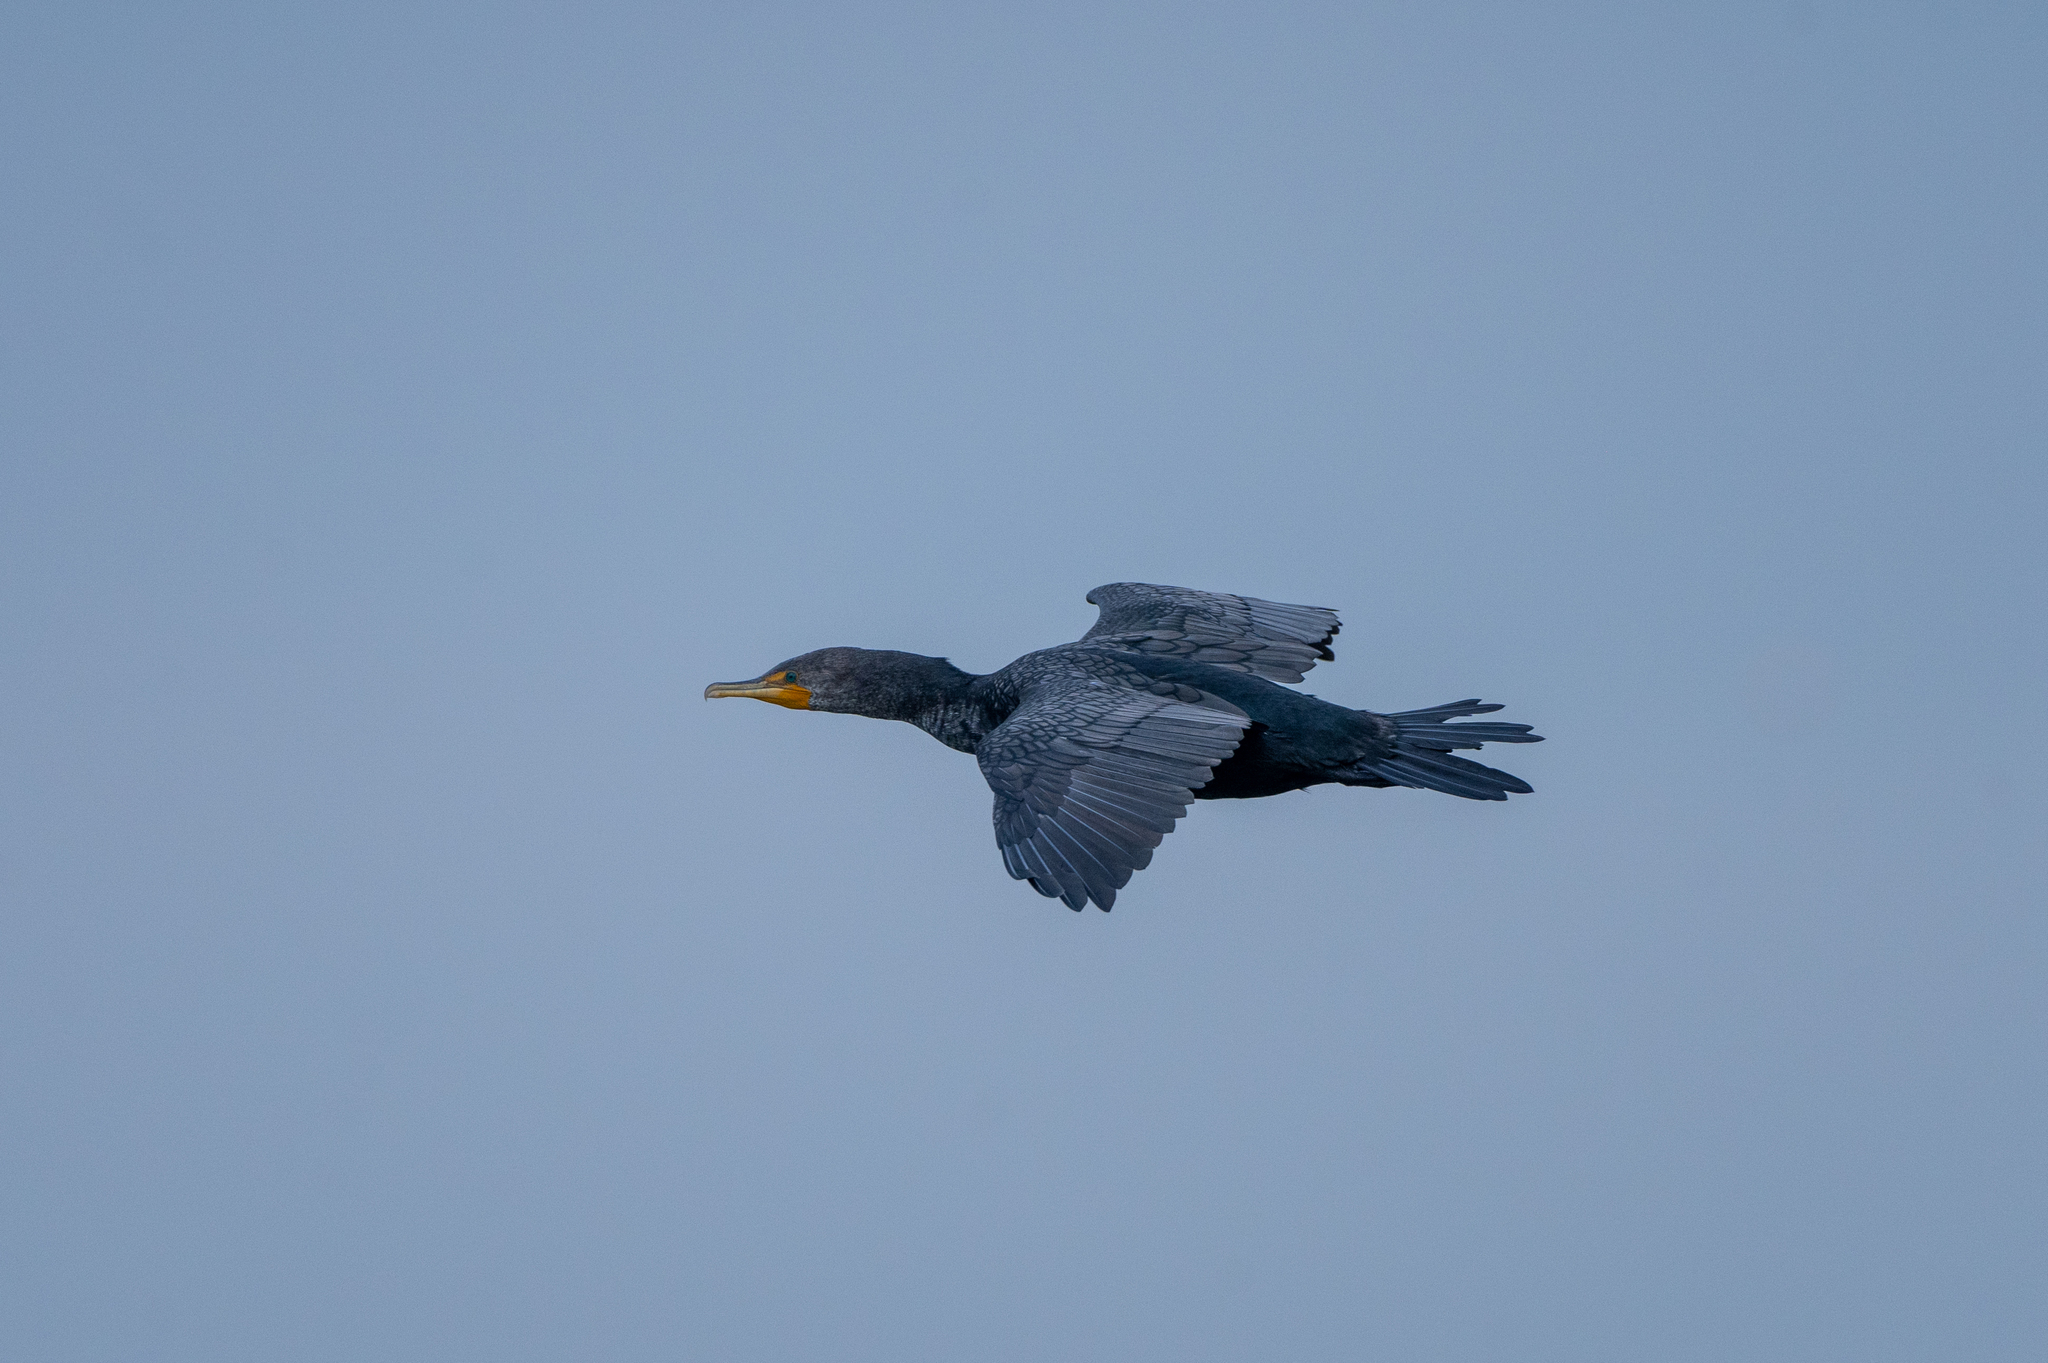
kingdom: Animalia
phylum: Chordata
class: Aves
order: Suliformes
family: Phalacrocoracidae
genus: Phalacrocorax
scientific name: Phalacrocorax auritus
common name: Double-crested cormorant
